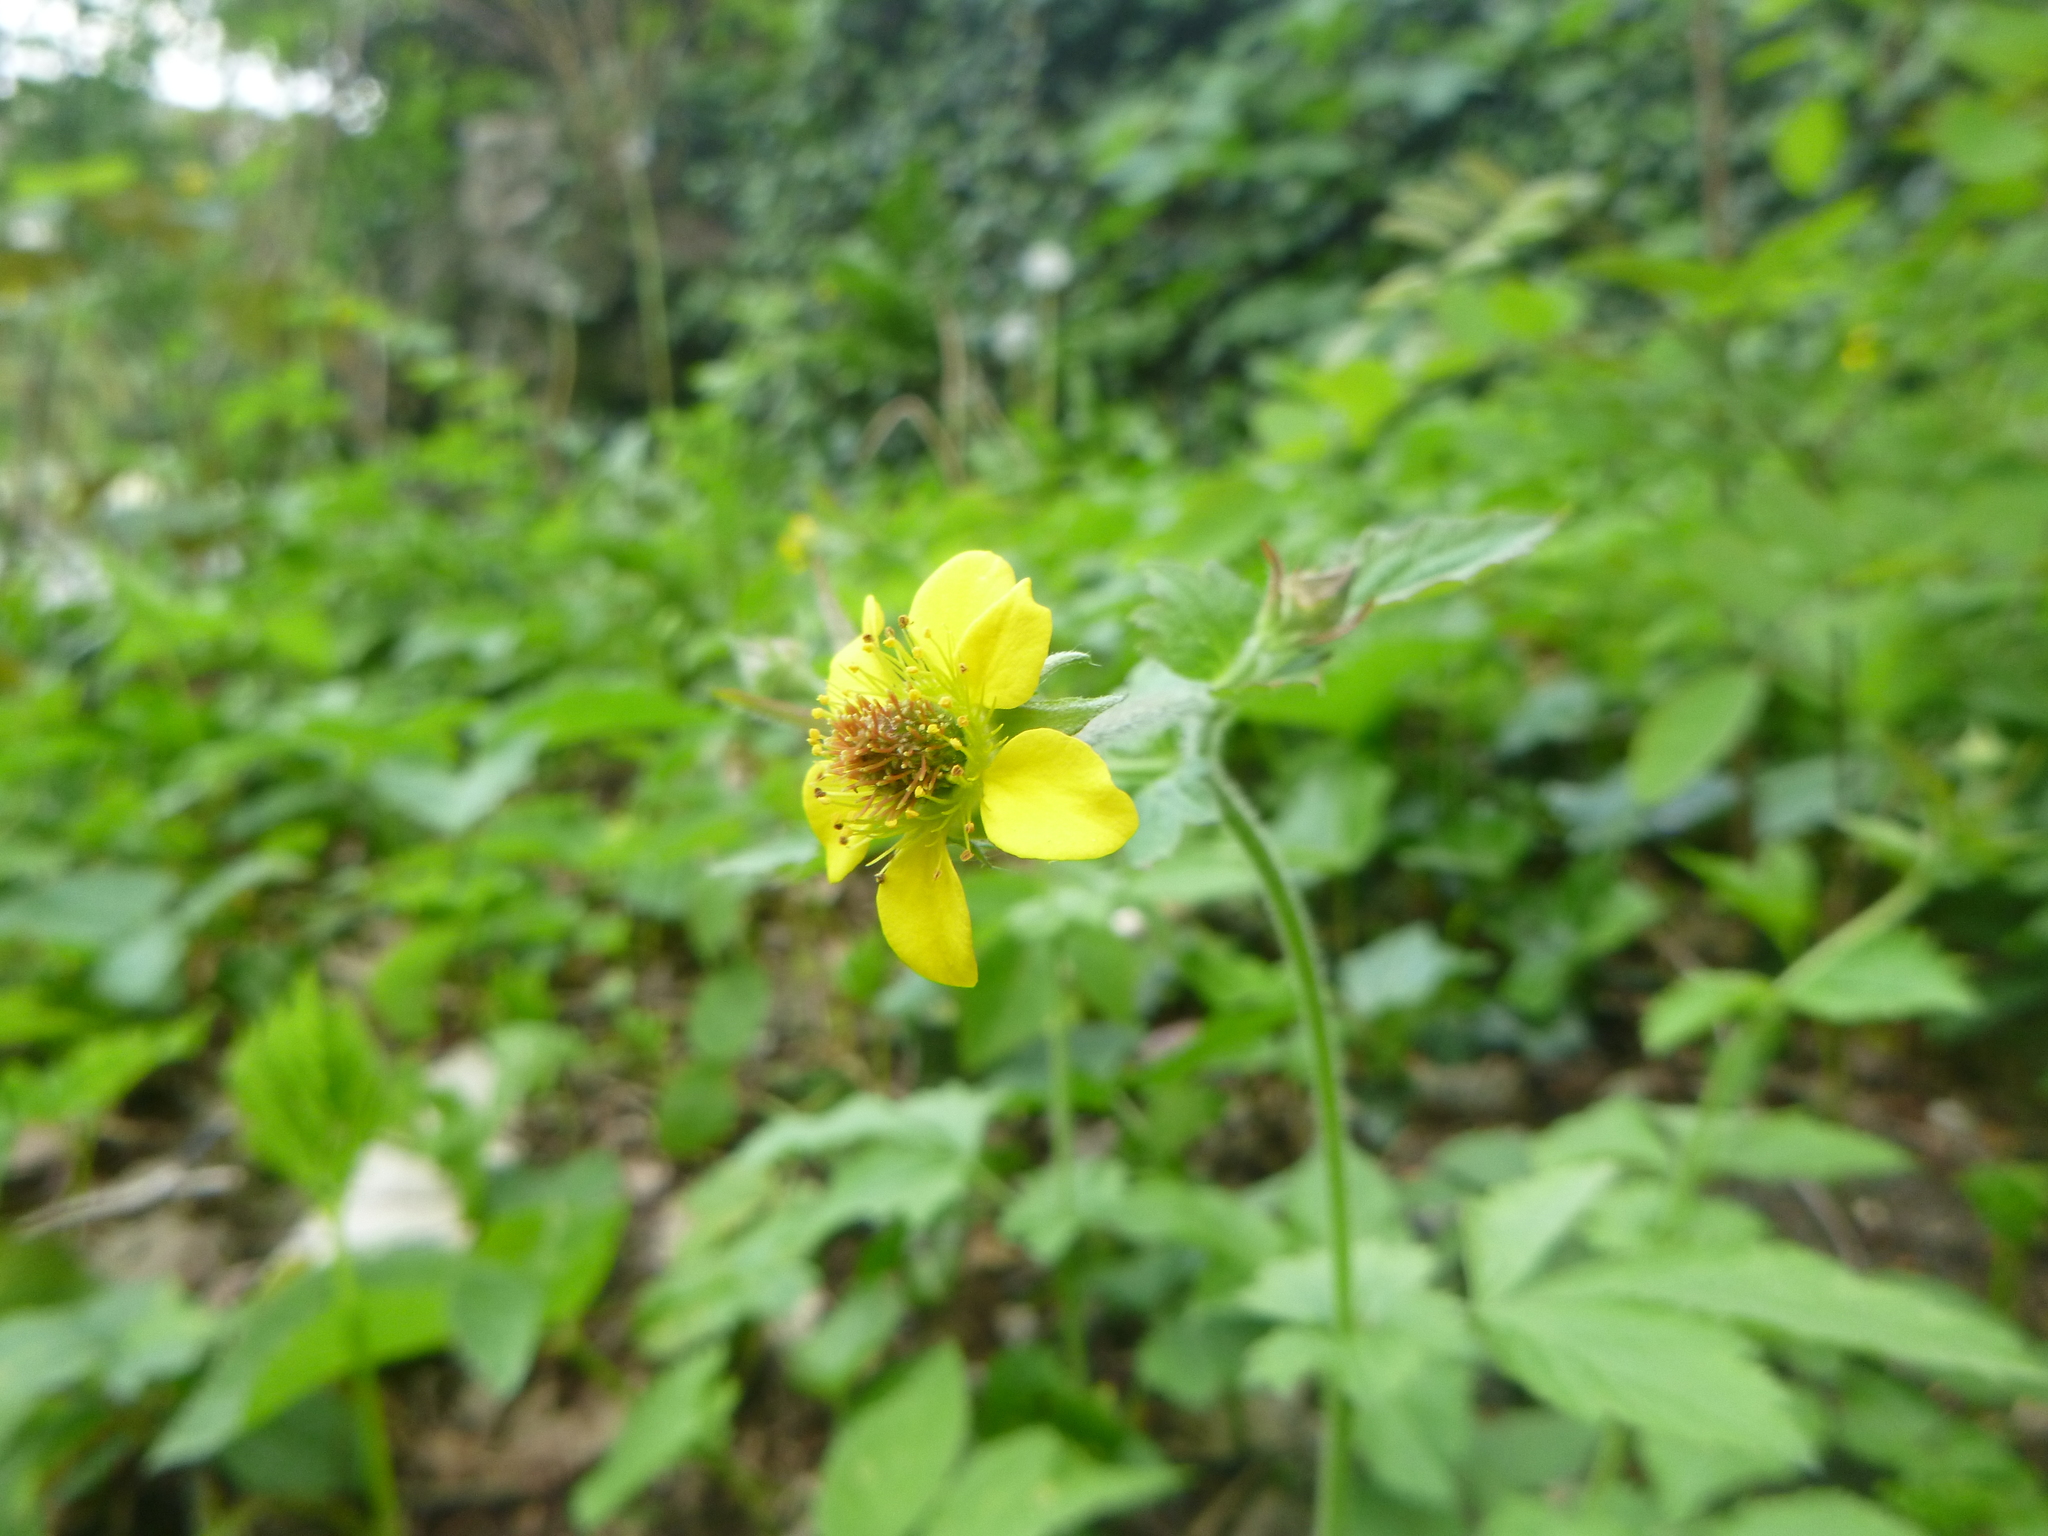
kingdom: Plantae
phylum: Tracheophyta
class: Magnoliopsida
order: Rosales
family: Rosaceae
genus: Geum
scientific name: Geum urbanum
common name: Wood avens
